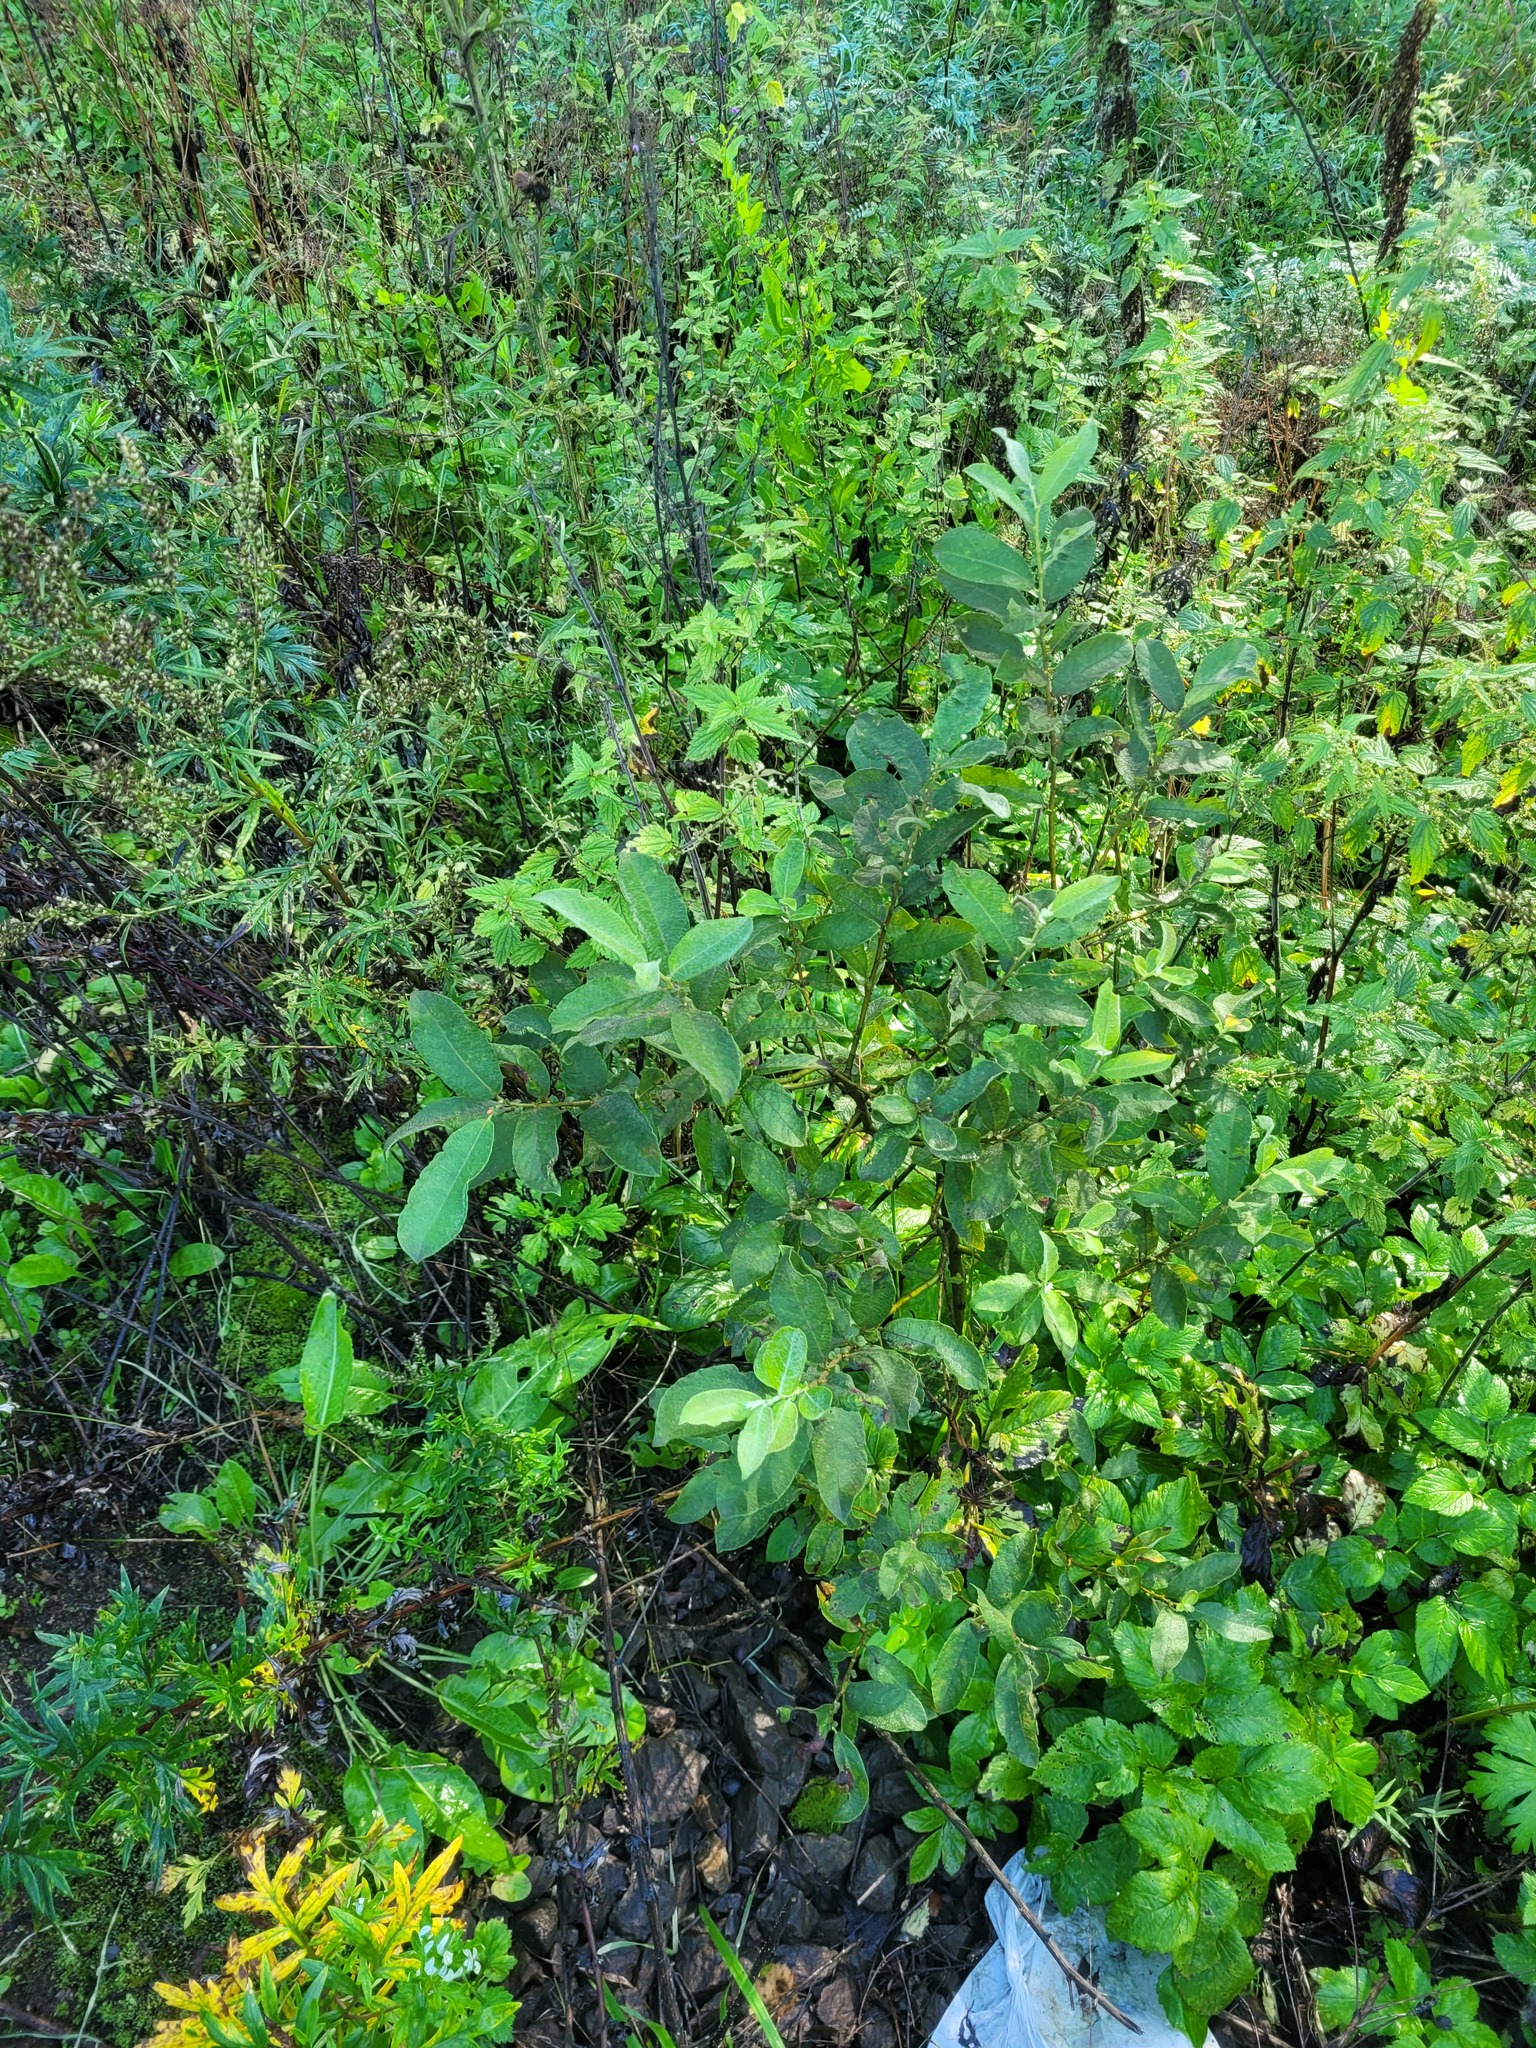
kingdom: Plantae
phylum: Tracheophyta
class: Magnoliopsida
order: Malpighiales
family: Salicaceae
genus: Salix
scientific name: Salix caprea
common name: Goat willow
